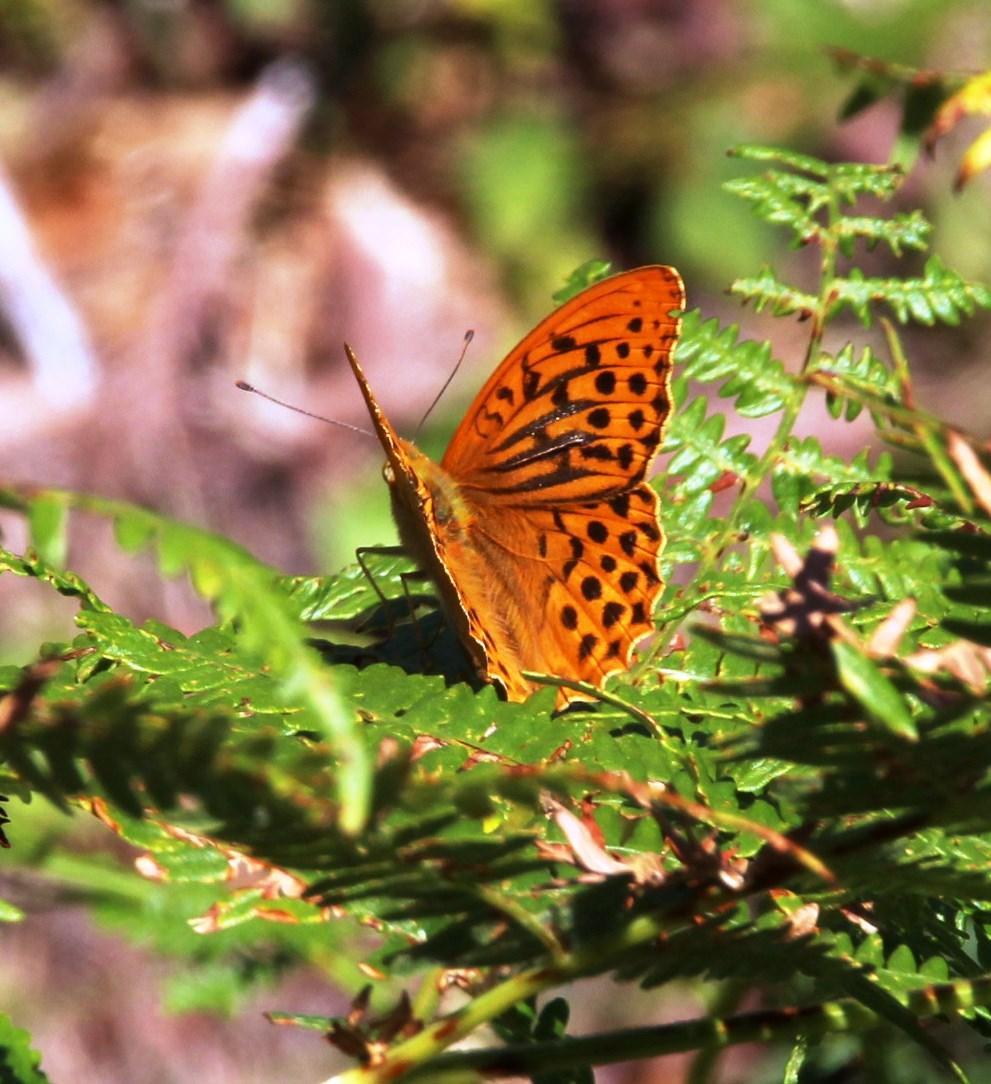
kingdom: Animalia
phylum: Arthropoda
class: Insecta
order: Lepidoptera
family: Nymphalidae
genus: Argynnis
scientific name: Argynnis paphia
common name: Silver-washed fritillary
